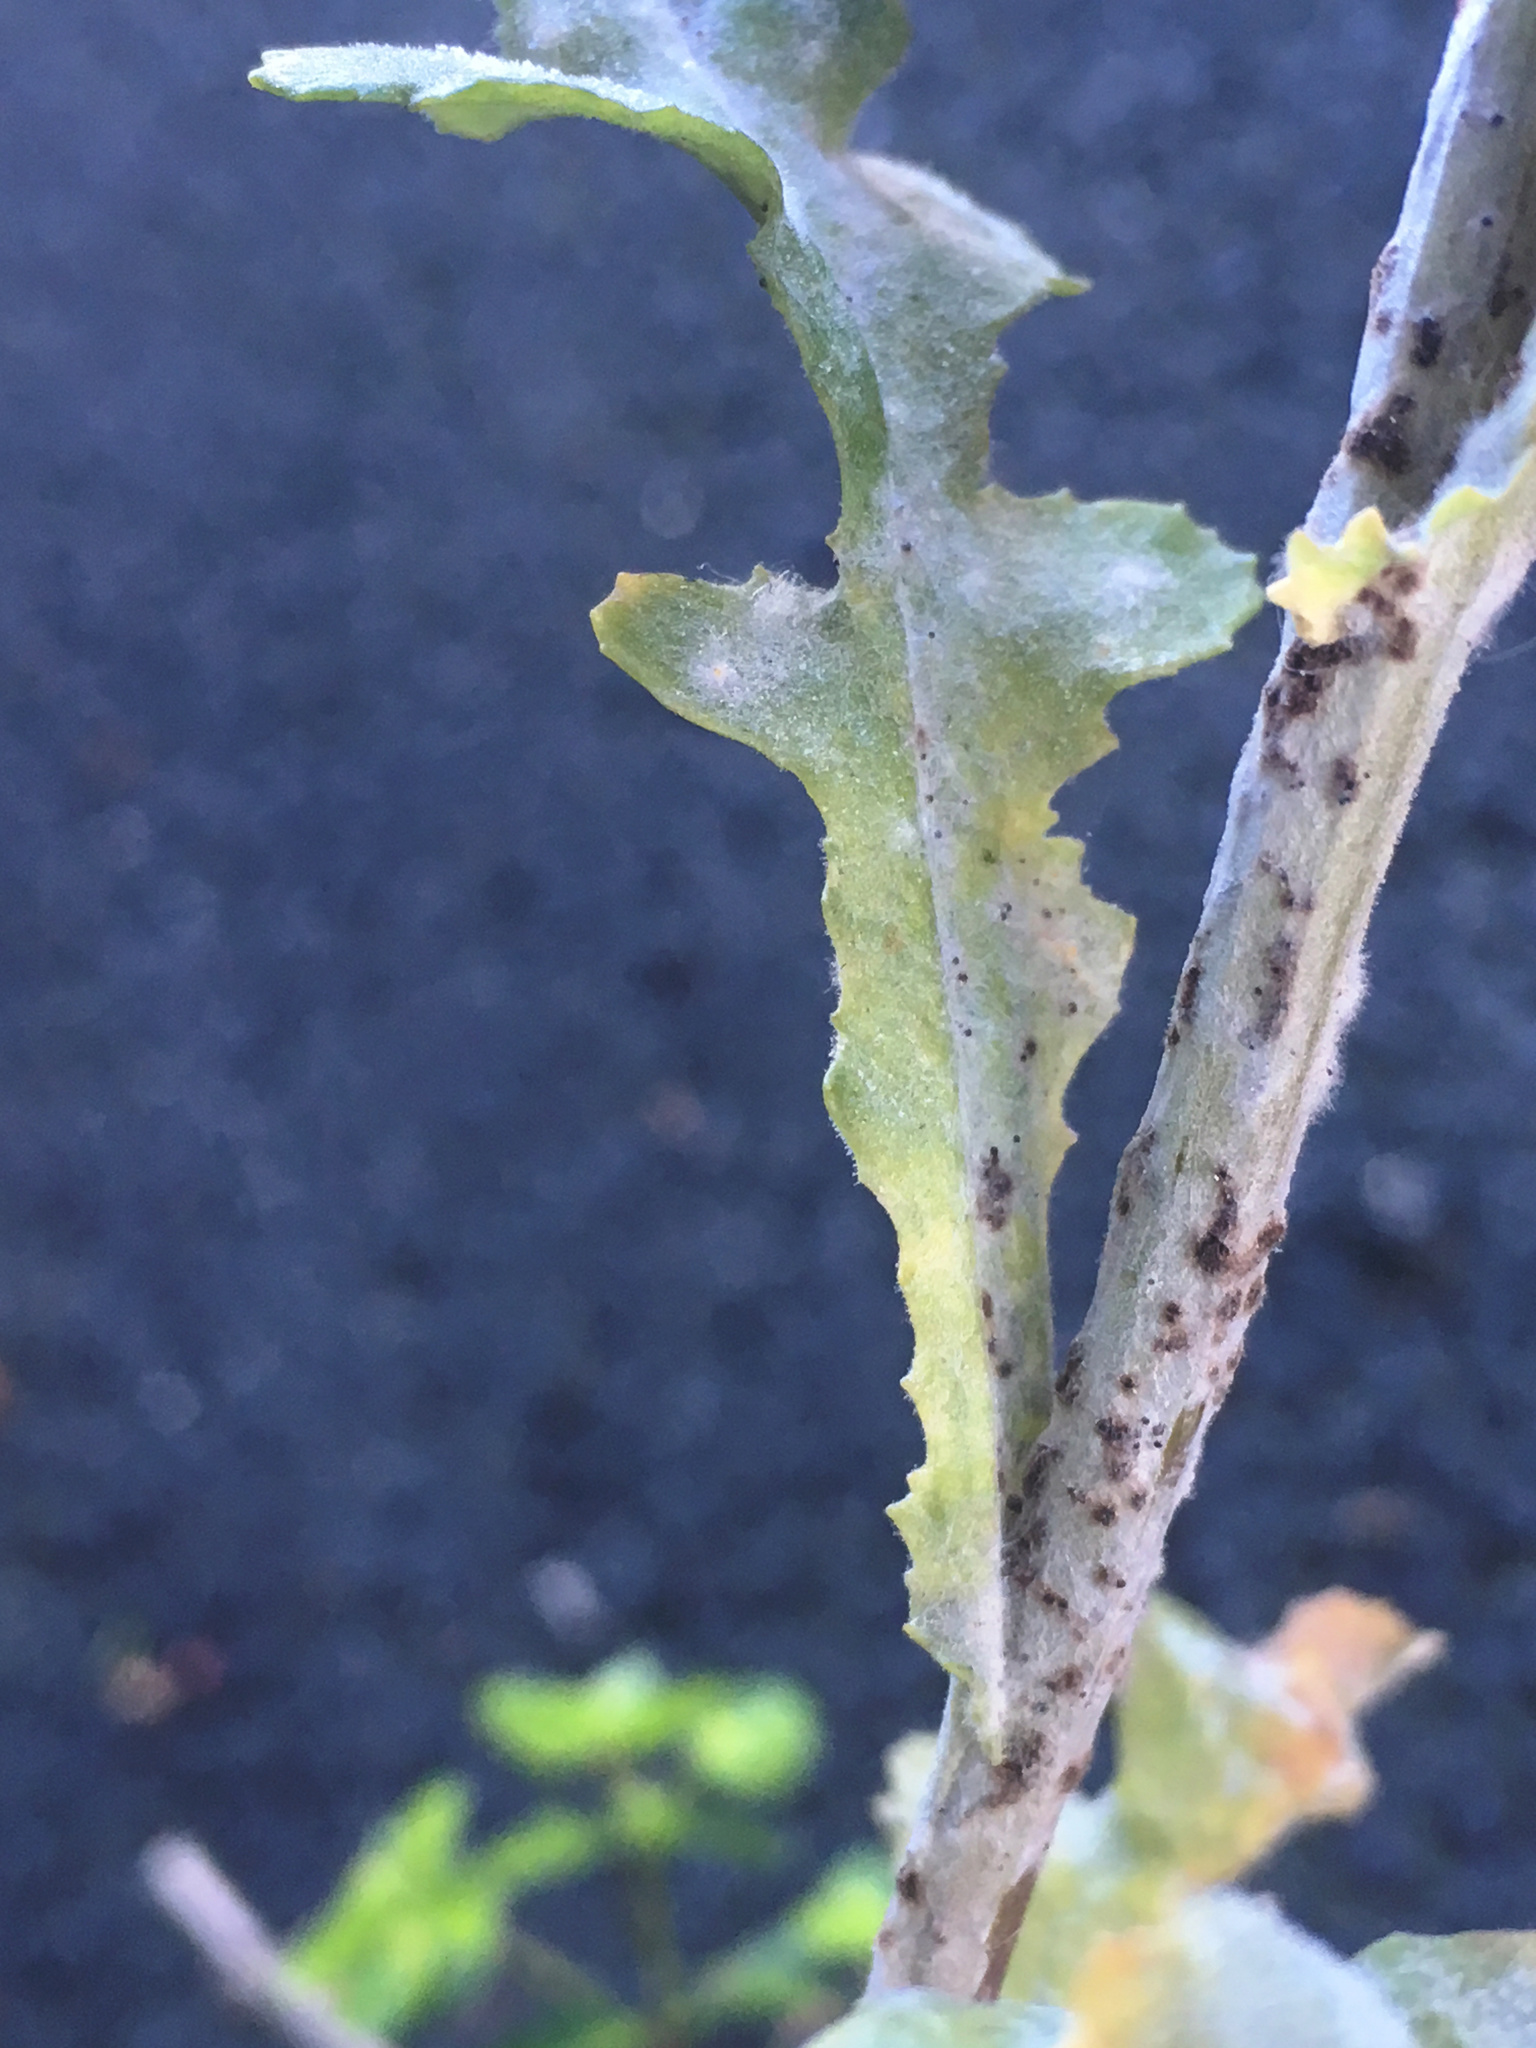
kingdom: Fungi
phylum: Ascomycota
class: Leotiomycetes
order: Helotiales
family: Erysiphaceae
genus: Neoerysiphe
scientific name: Neoerysiphe kerribeeensis
